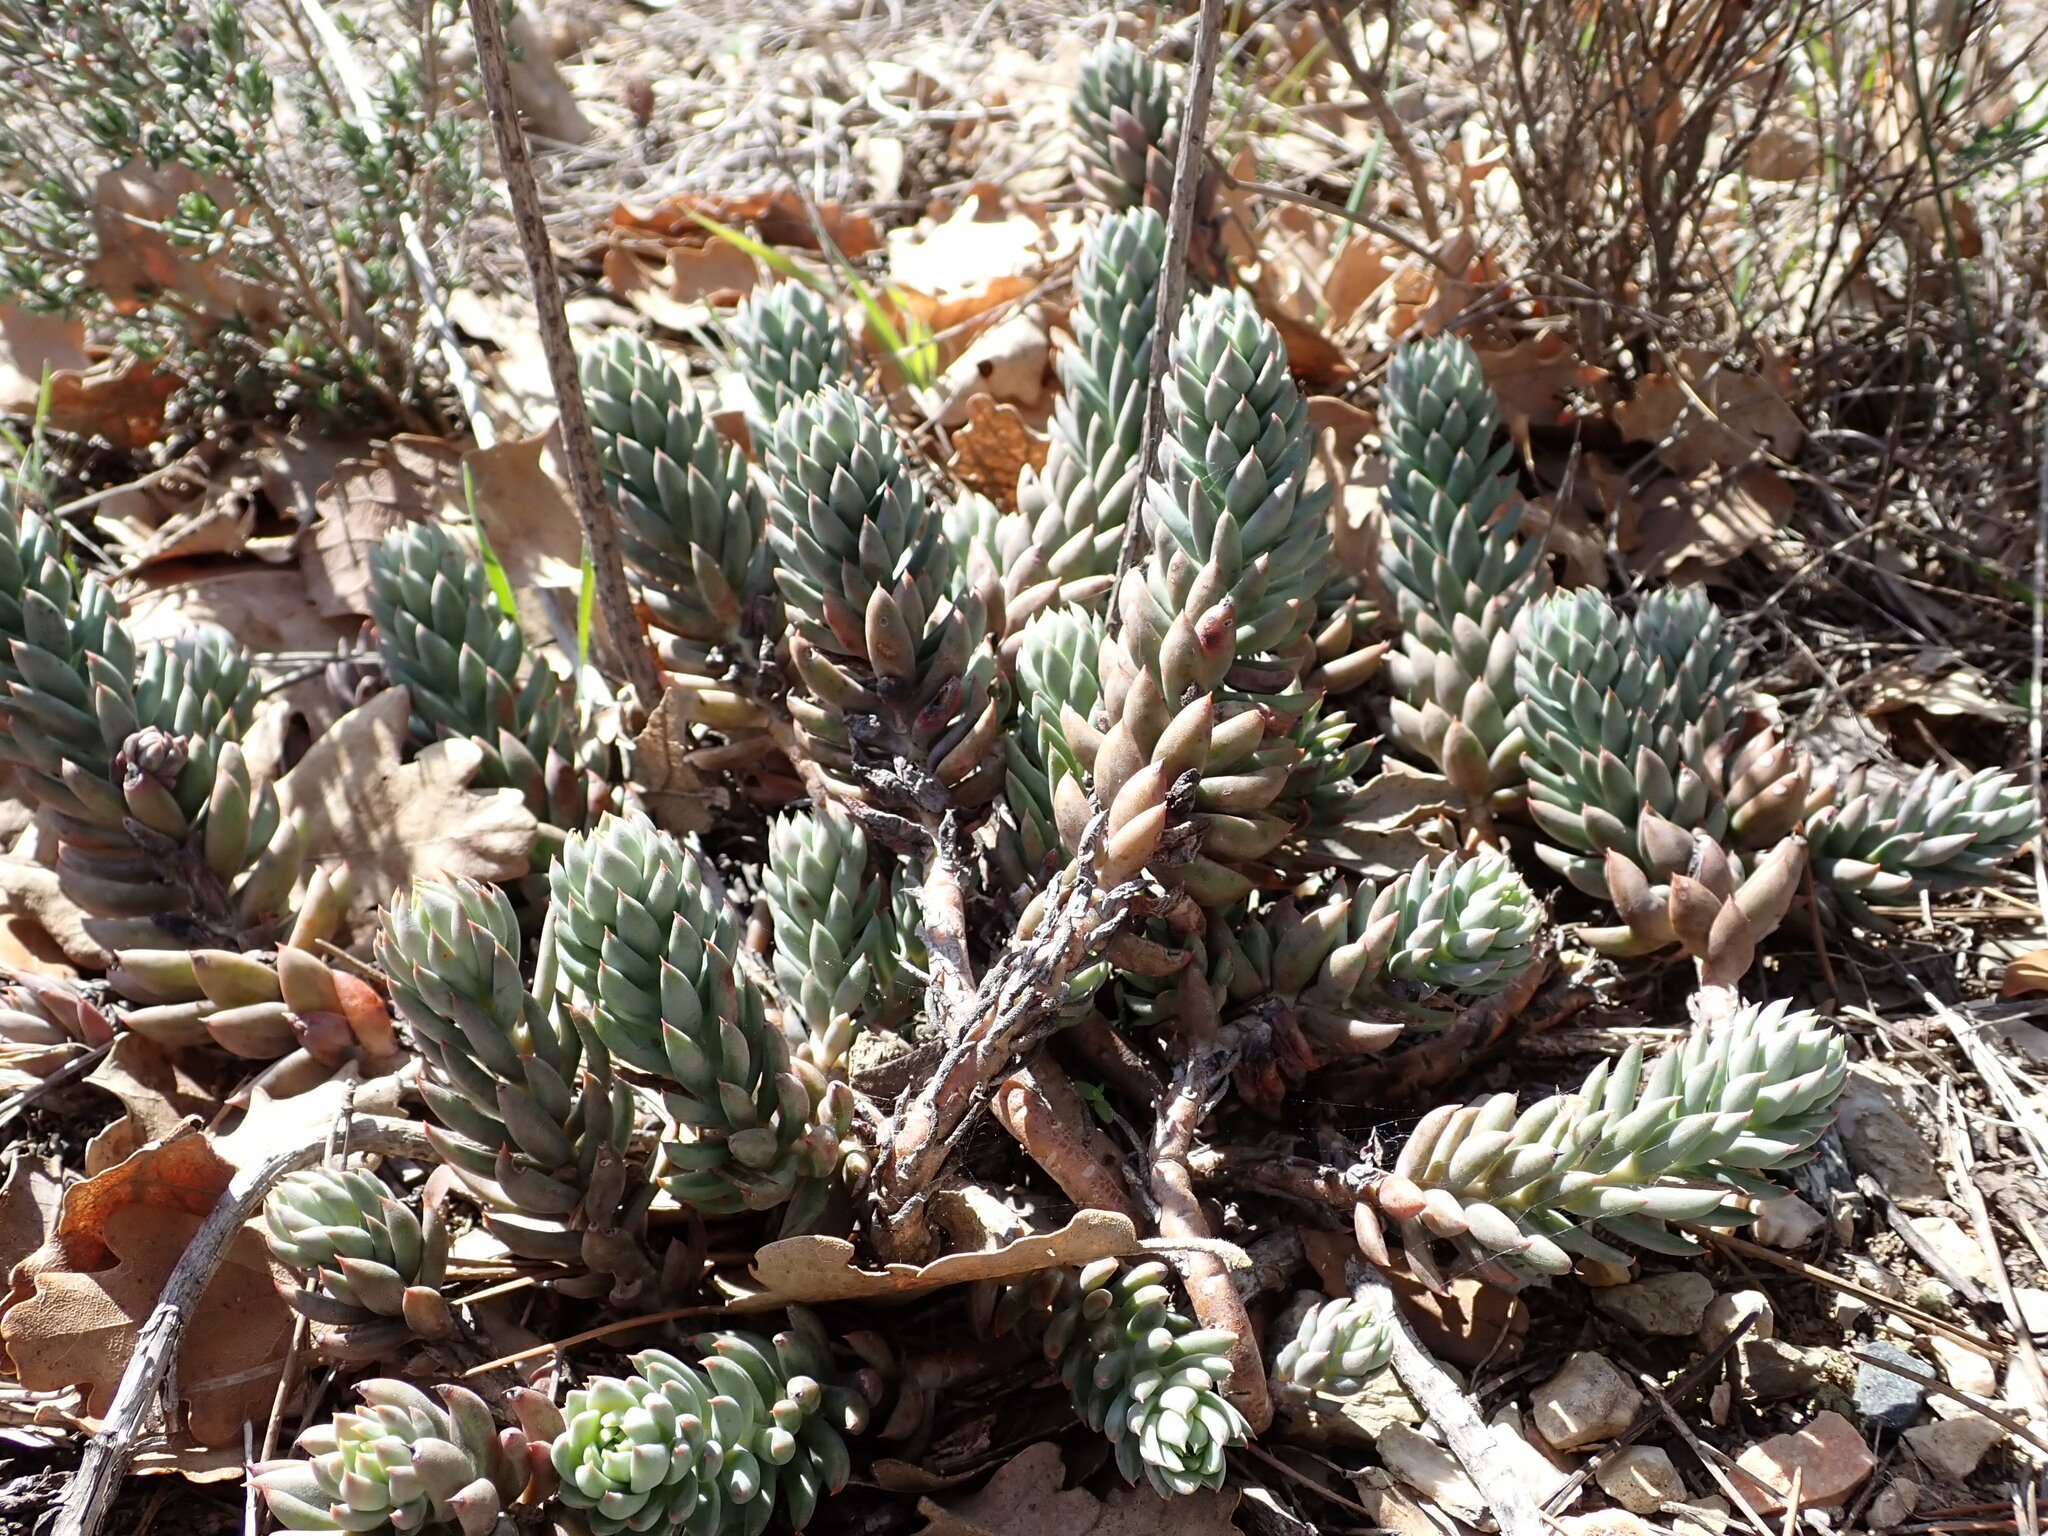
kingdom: Plantae
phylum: Tracheophyta
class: Magnoliopsida
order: Saxifragales
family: Crassulaceae
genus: Petrosedum
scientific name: Petrosedum sediforme
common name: Pale stonecrop
